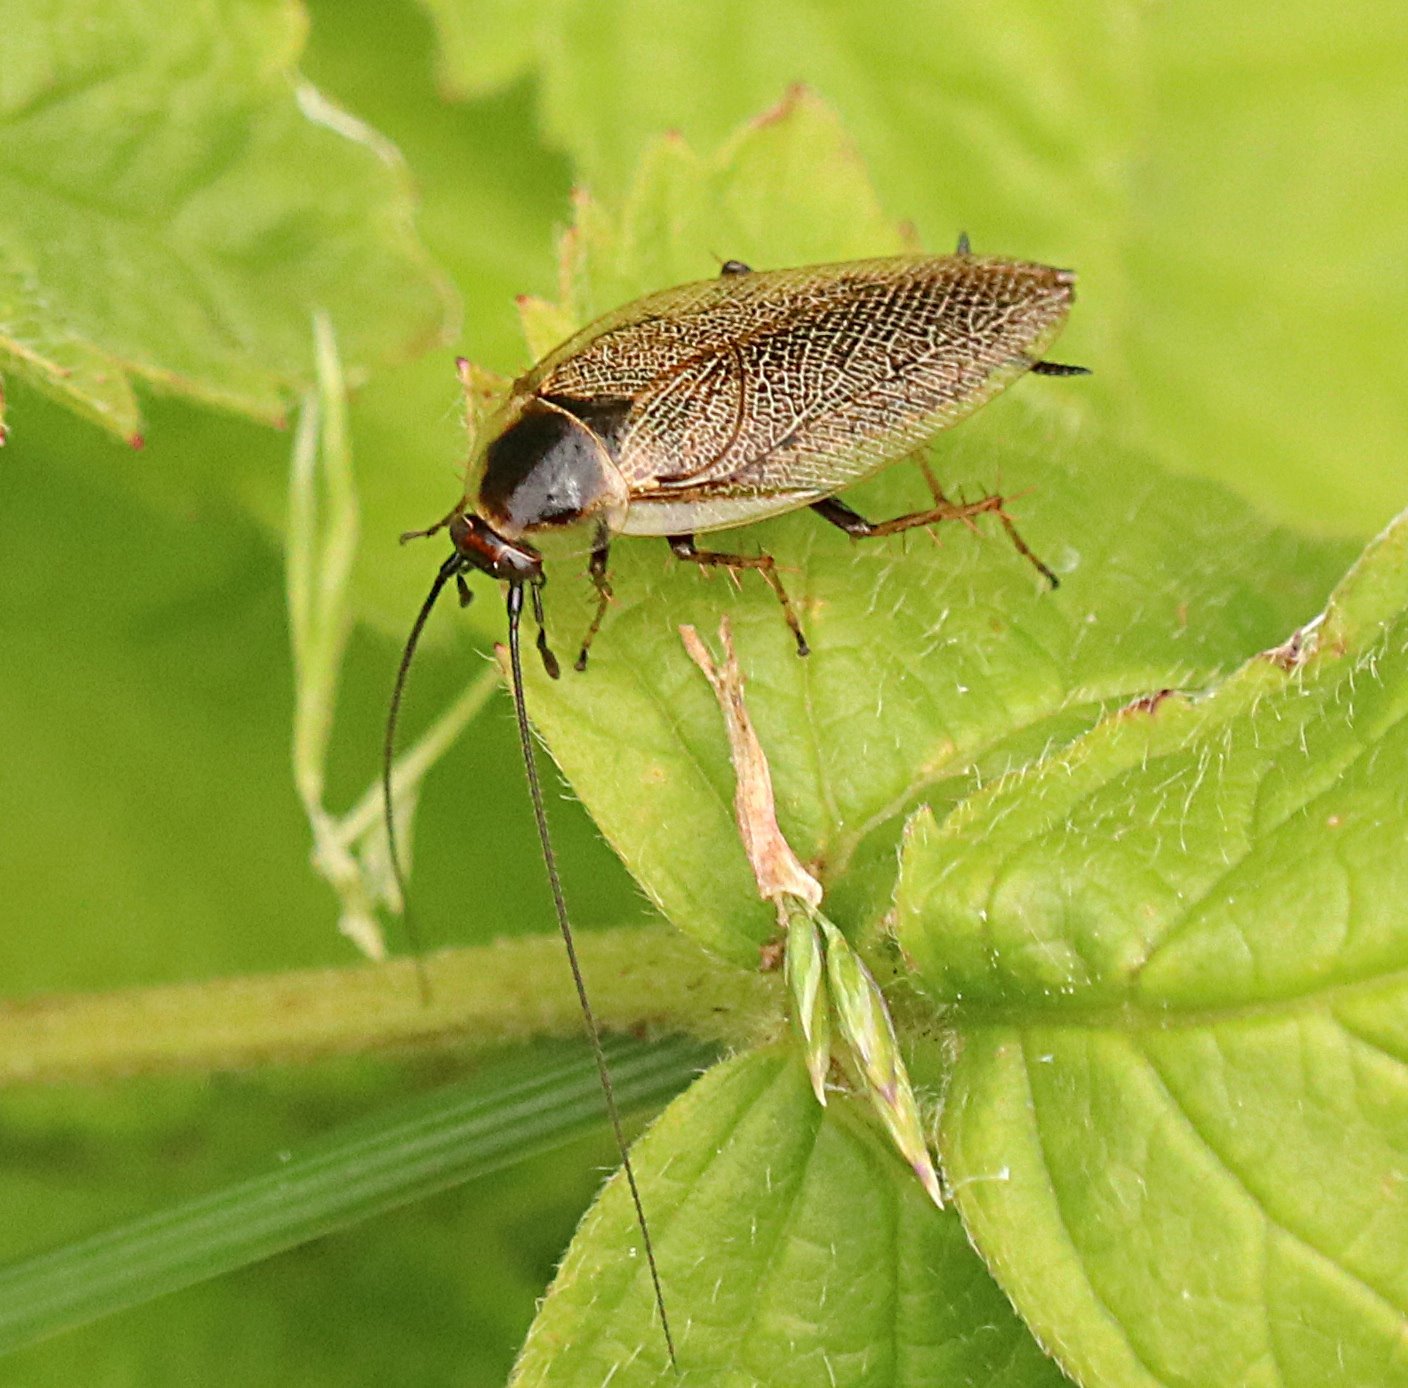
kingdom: Animalia
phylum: Arthropoda
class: Insecta
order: Blattodea
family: Ectobiidae
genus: Ectobius
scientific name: Ectobius lapponicus
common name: Dusky cockroach
